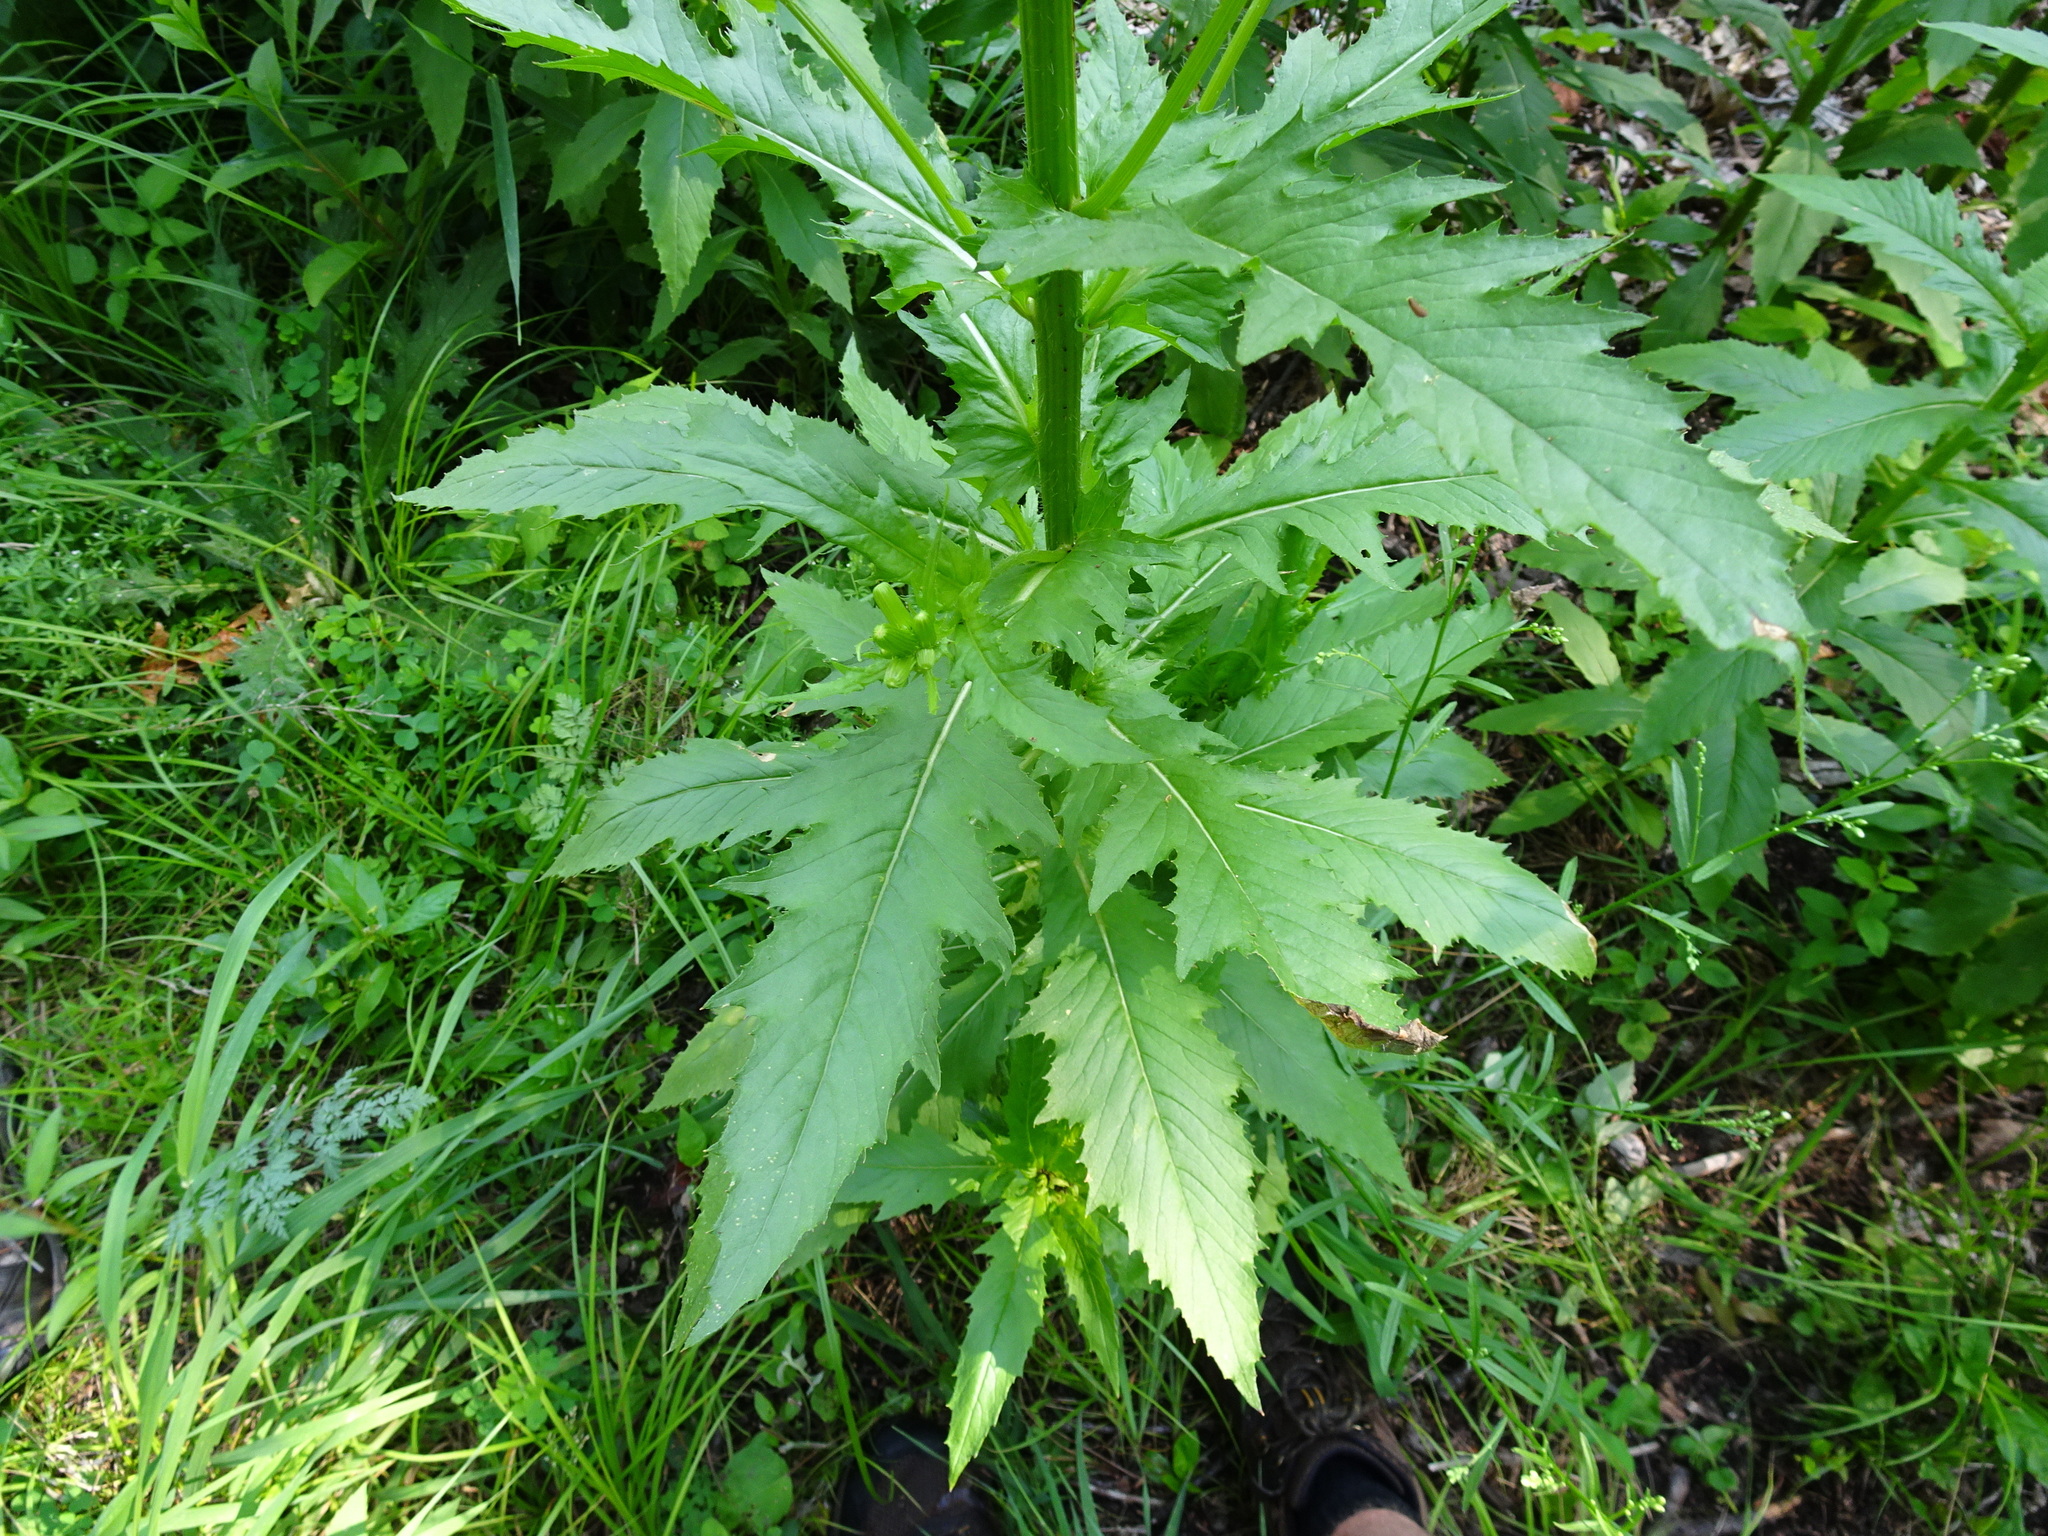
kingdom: Plantae
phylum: Tracheophyta
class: Magnoliopsida
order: Asterales
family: Asteraceae
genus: Erechtites
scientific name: Erechtites hieraciifolius
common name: American burnweed
